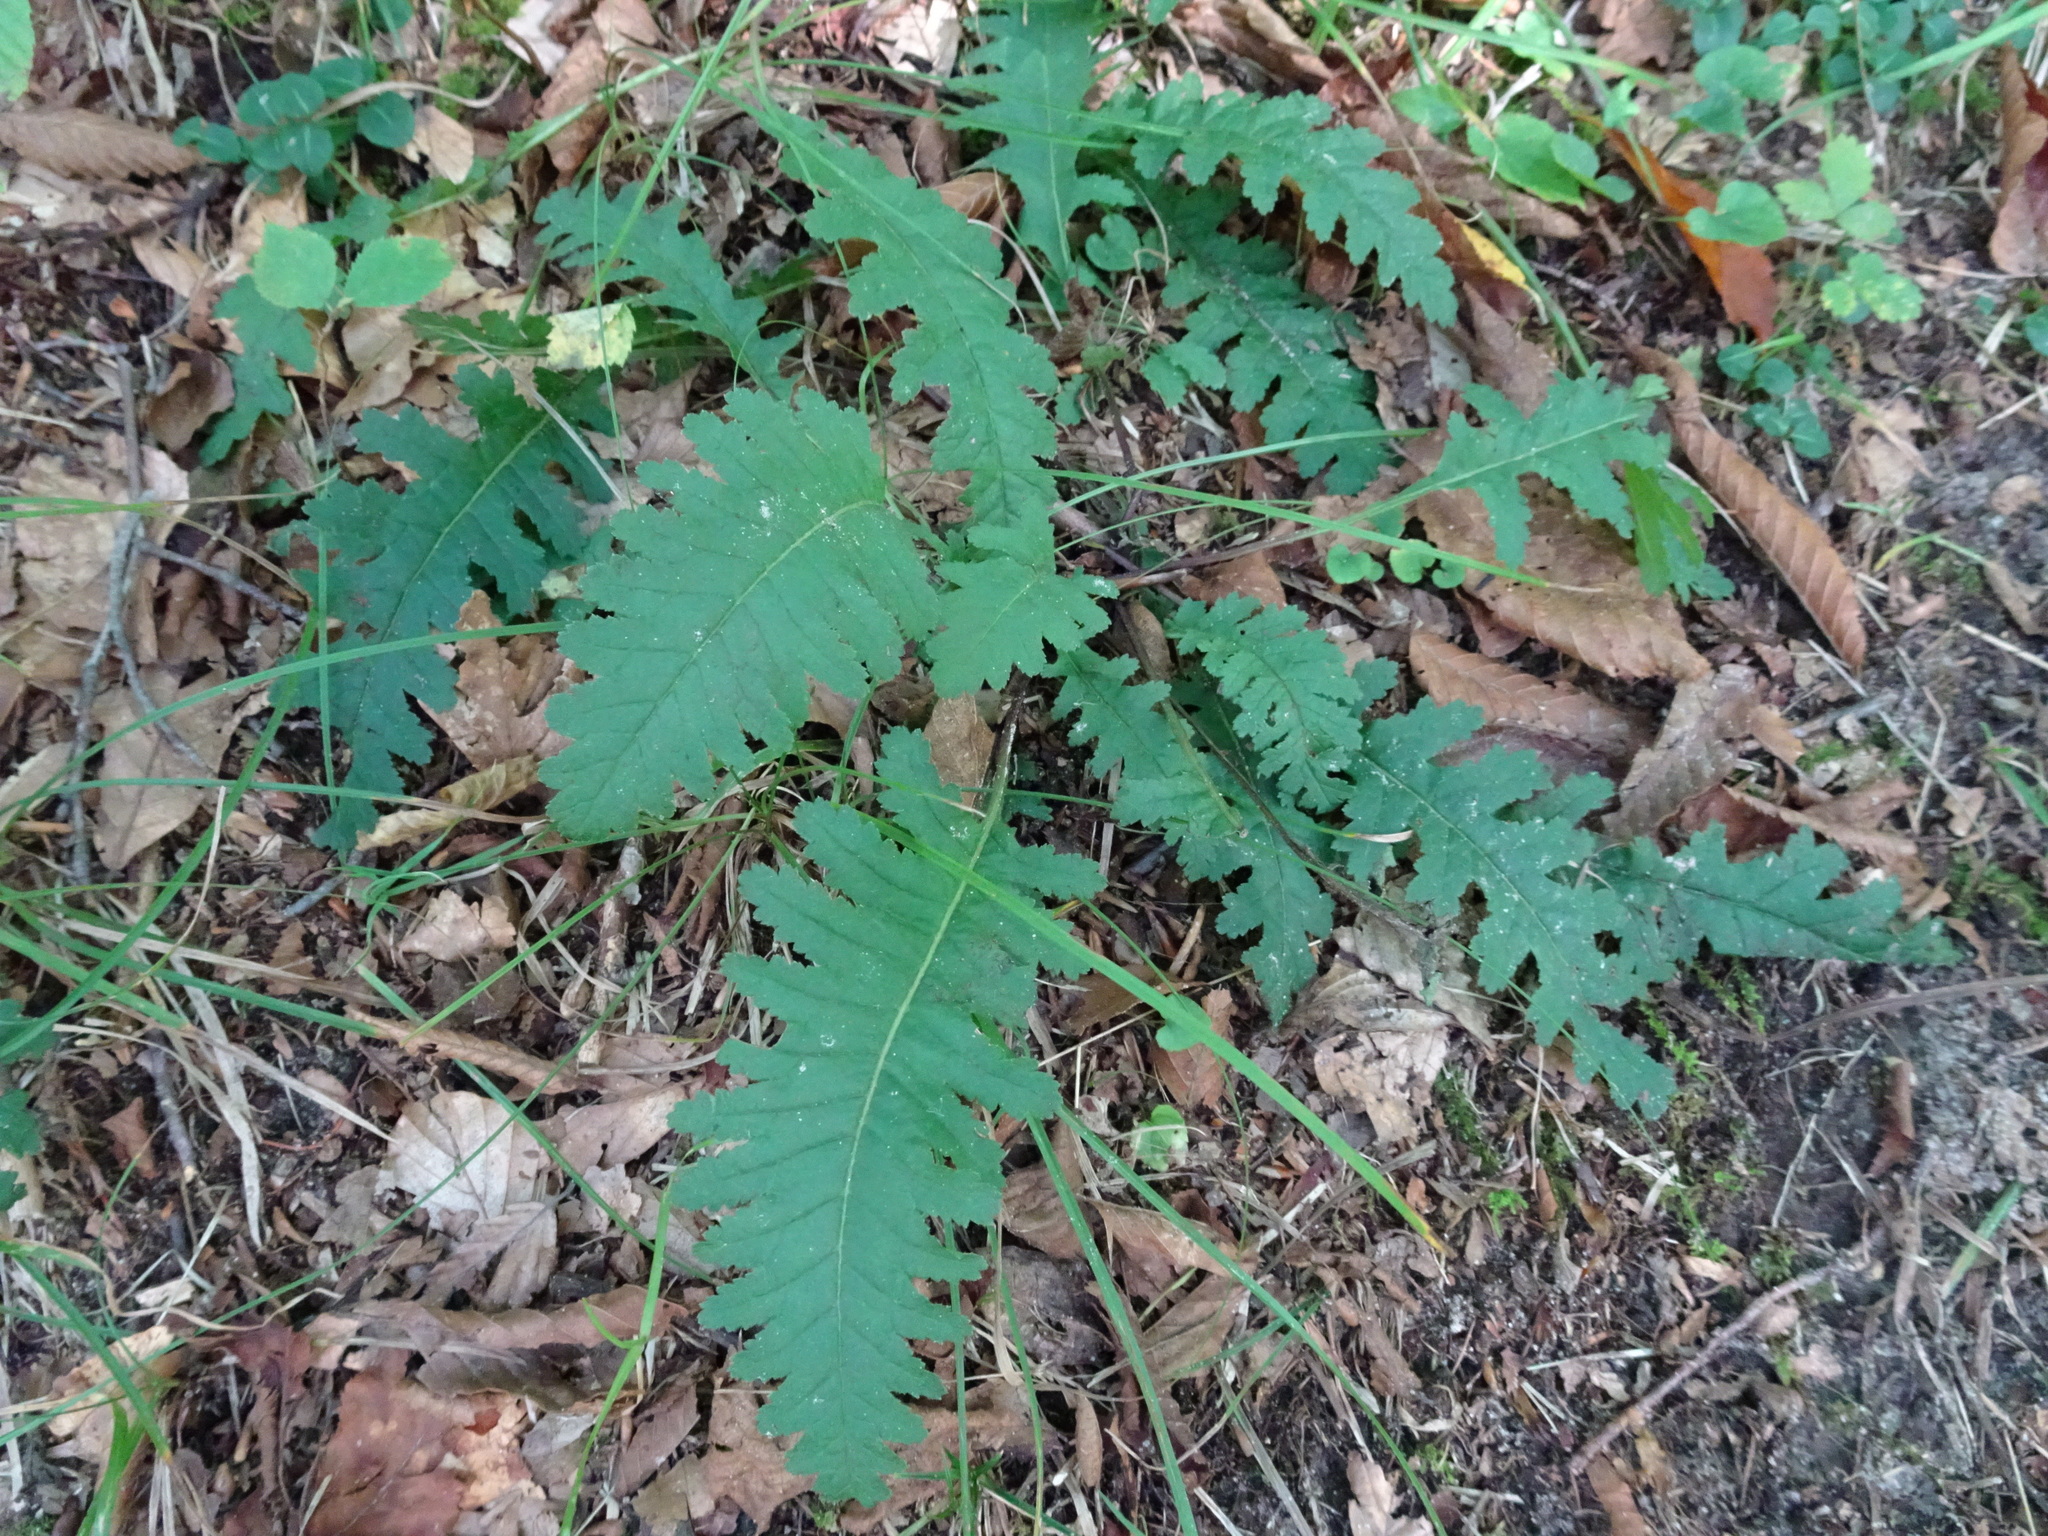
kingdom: Plantae
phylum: Tracheophyta
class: Magnoliopsida
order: Lamiales
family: Orobanchaceae
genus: Pedicularis
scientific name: Pedicularis canadensis
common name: Early lousewort
